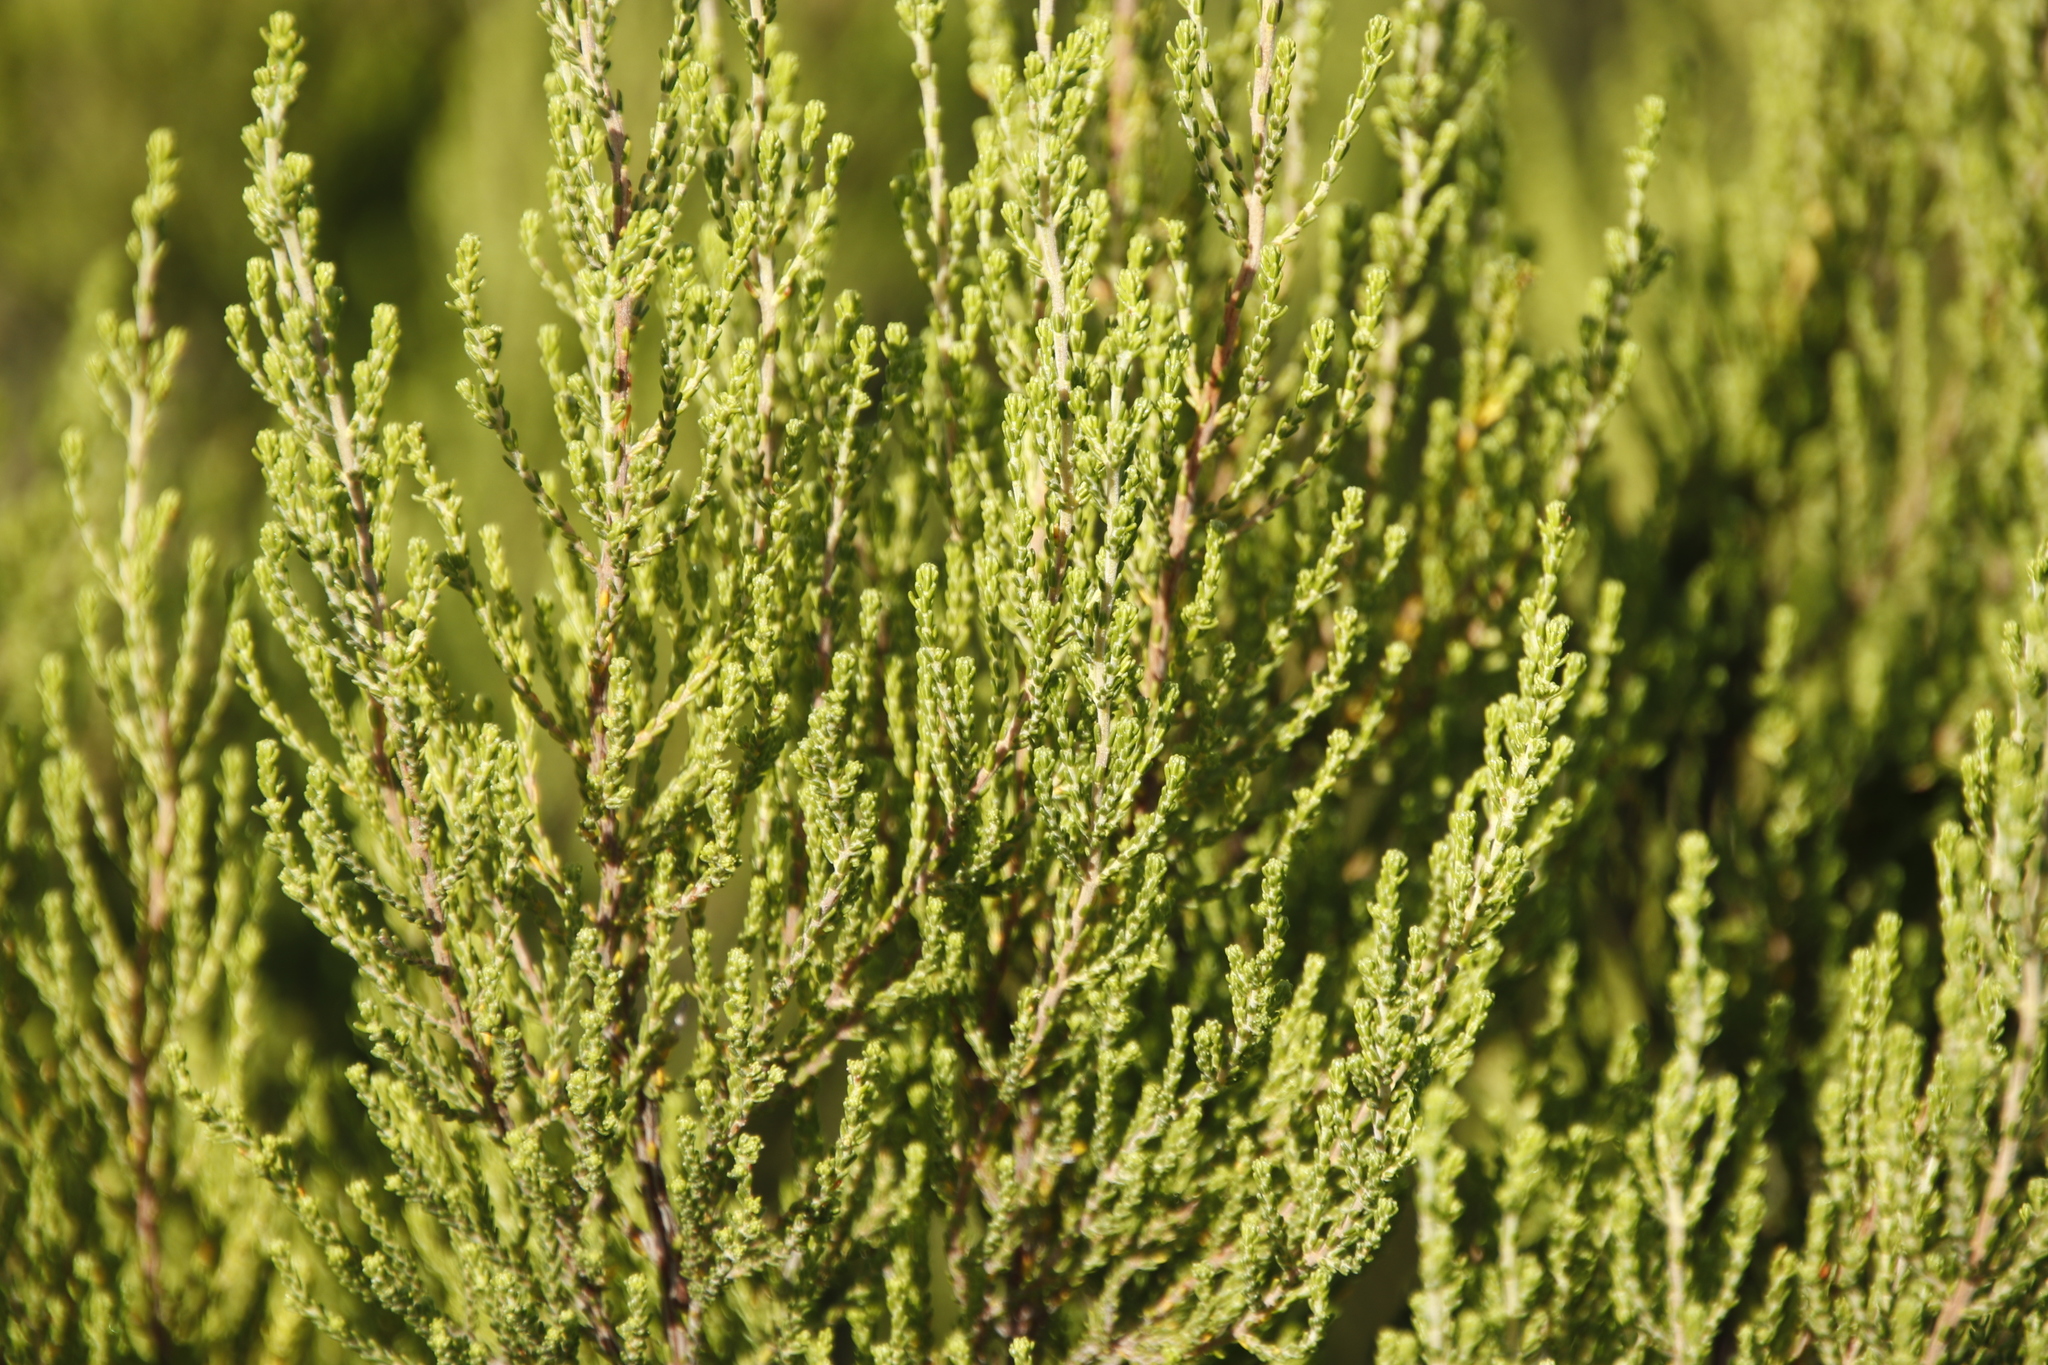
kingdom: Plantae
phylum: Tracheophyta
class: Magnoliopsida
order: Ericales
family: Ericaceae
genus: Erica
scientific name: Erica tristis
